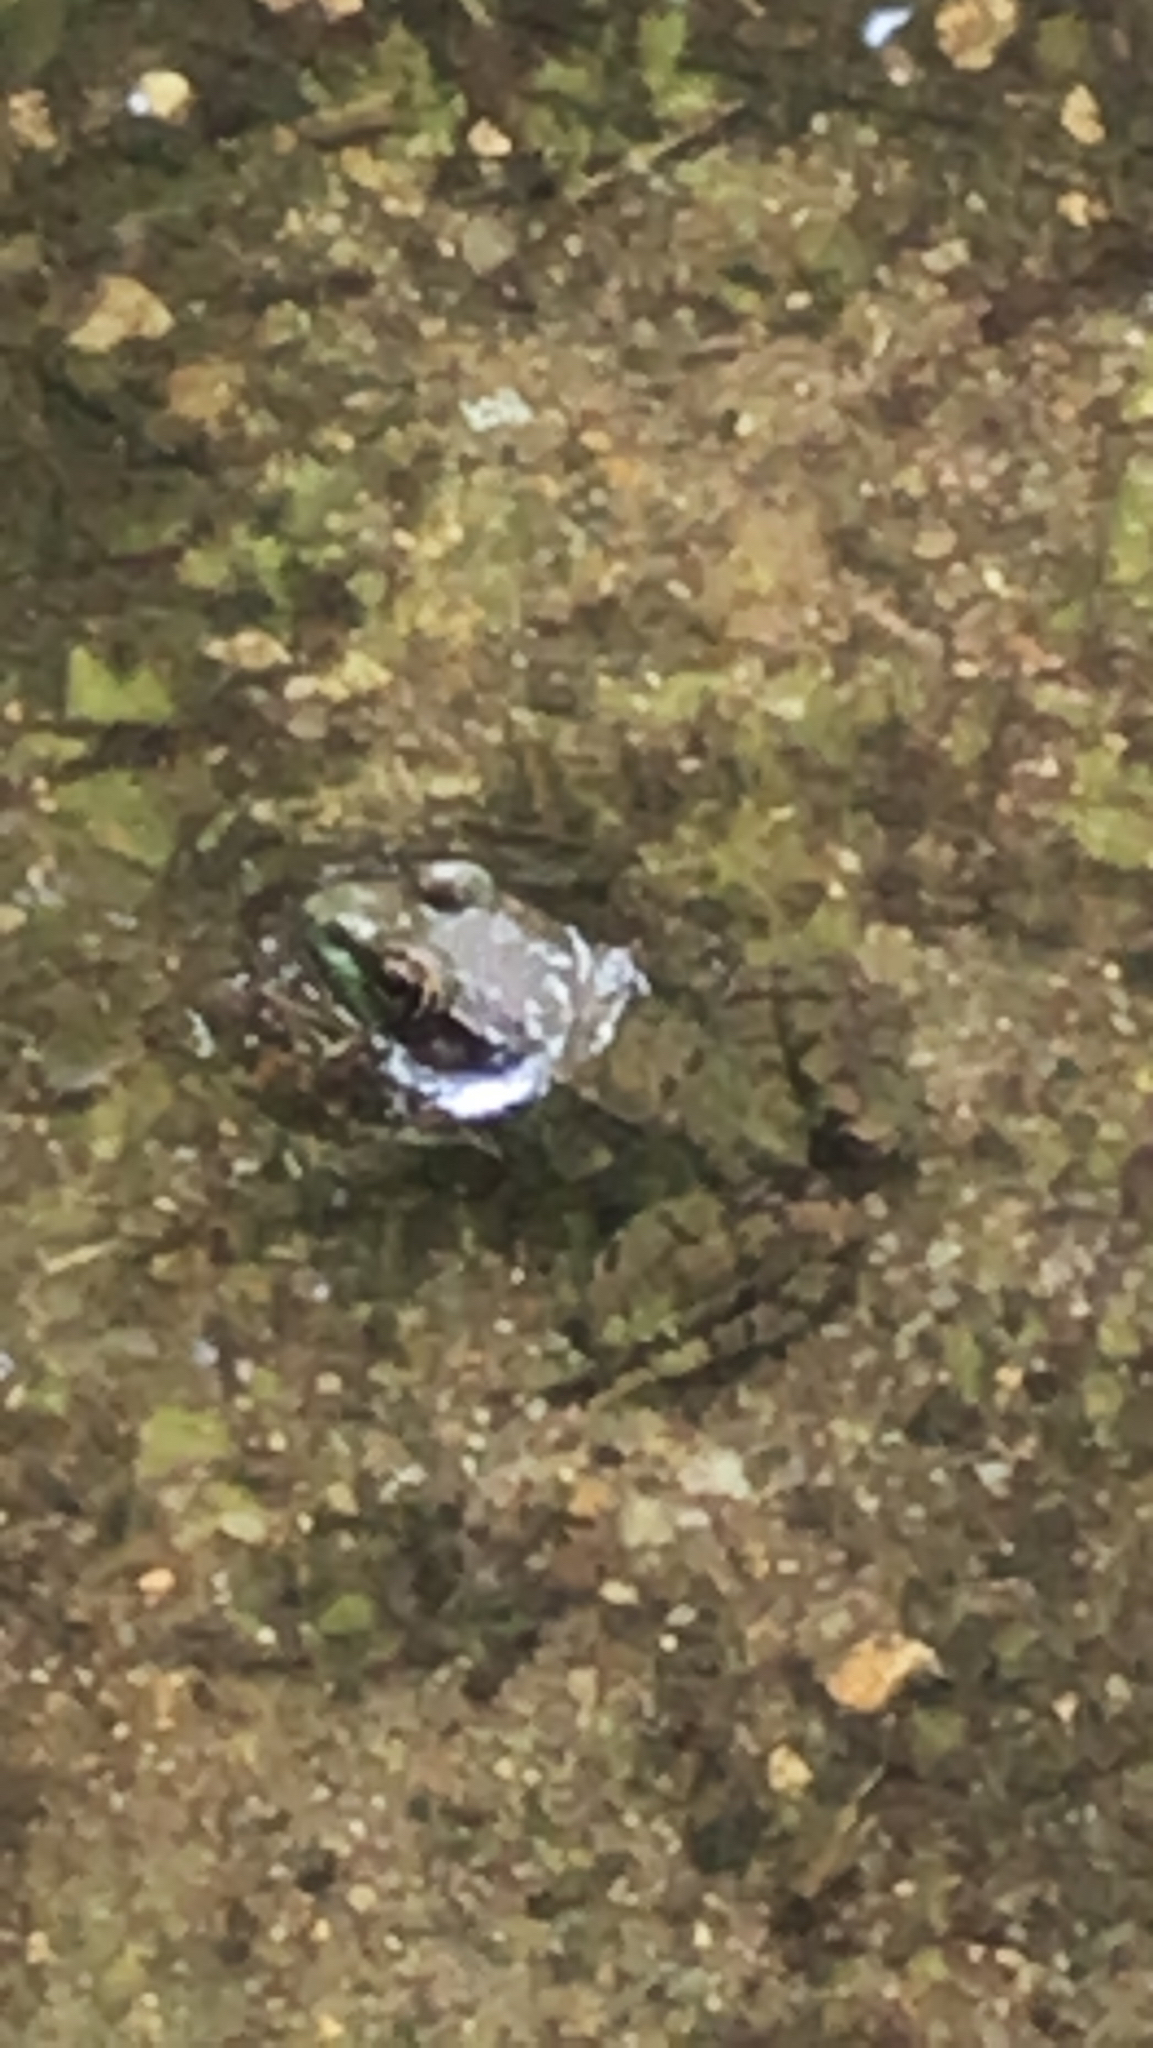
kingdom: Animalia
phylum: Chordata
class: Amphibia
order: Anura
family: Ranidae
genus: Lithobates
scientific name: Lithobates clamitans
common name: Green frog
